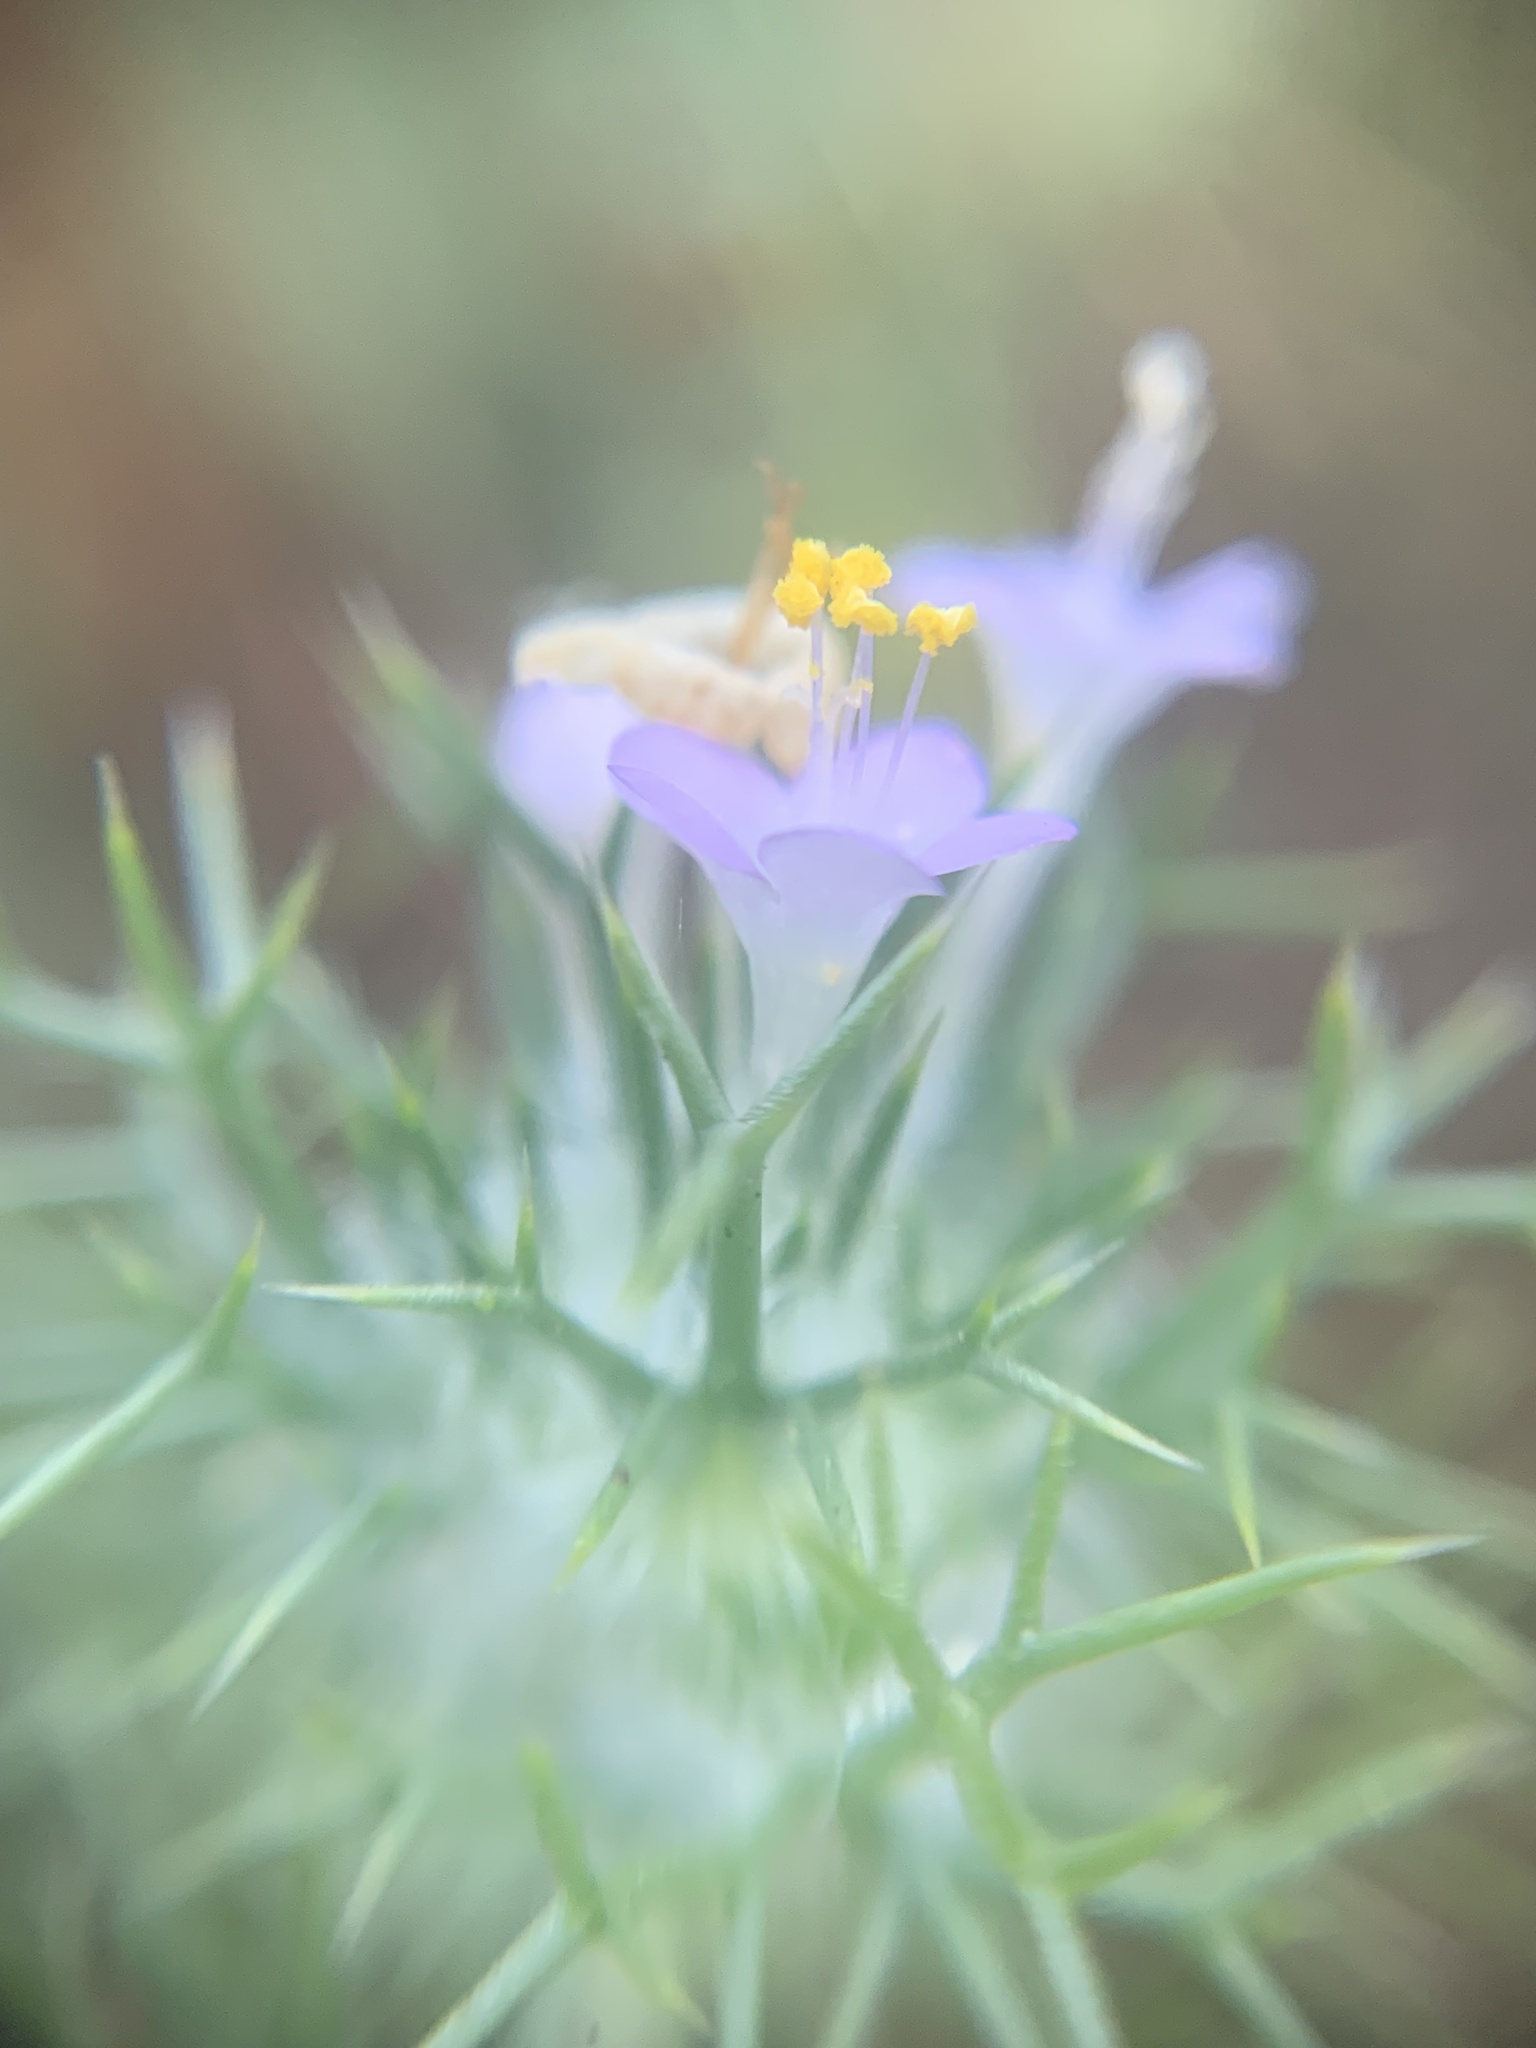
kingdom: Plantae
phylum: Tracheophyta
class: Magnoliopsida
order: Ericales
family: Polemoniaceae
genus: Navarretia
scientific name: Navarretia intertexta
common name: Needle-leaved navarretia
